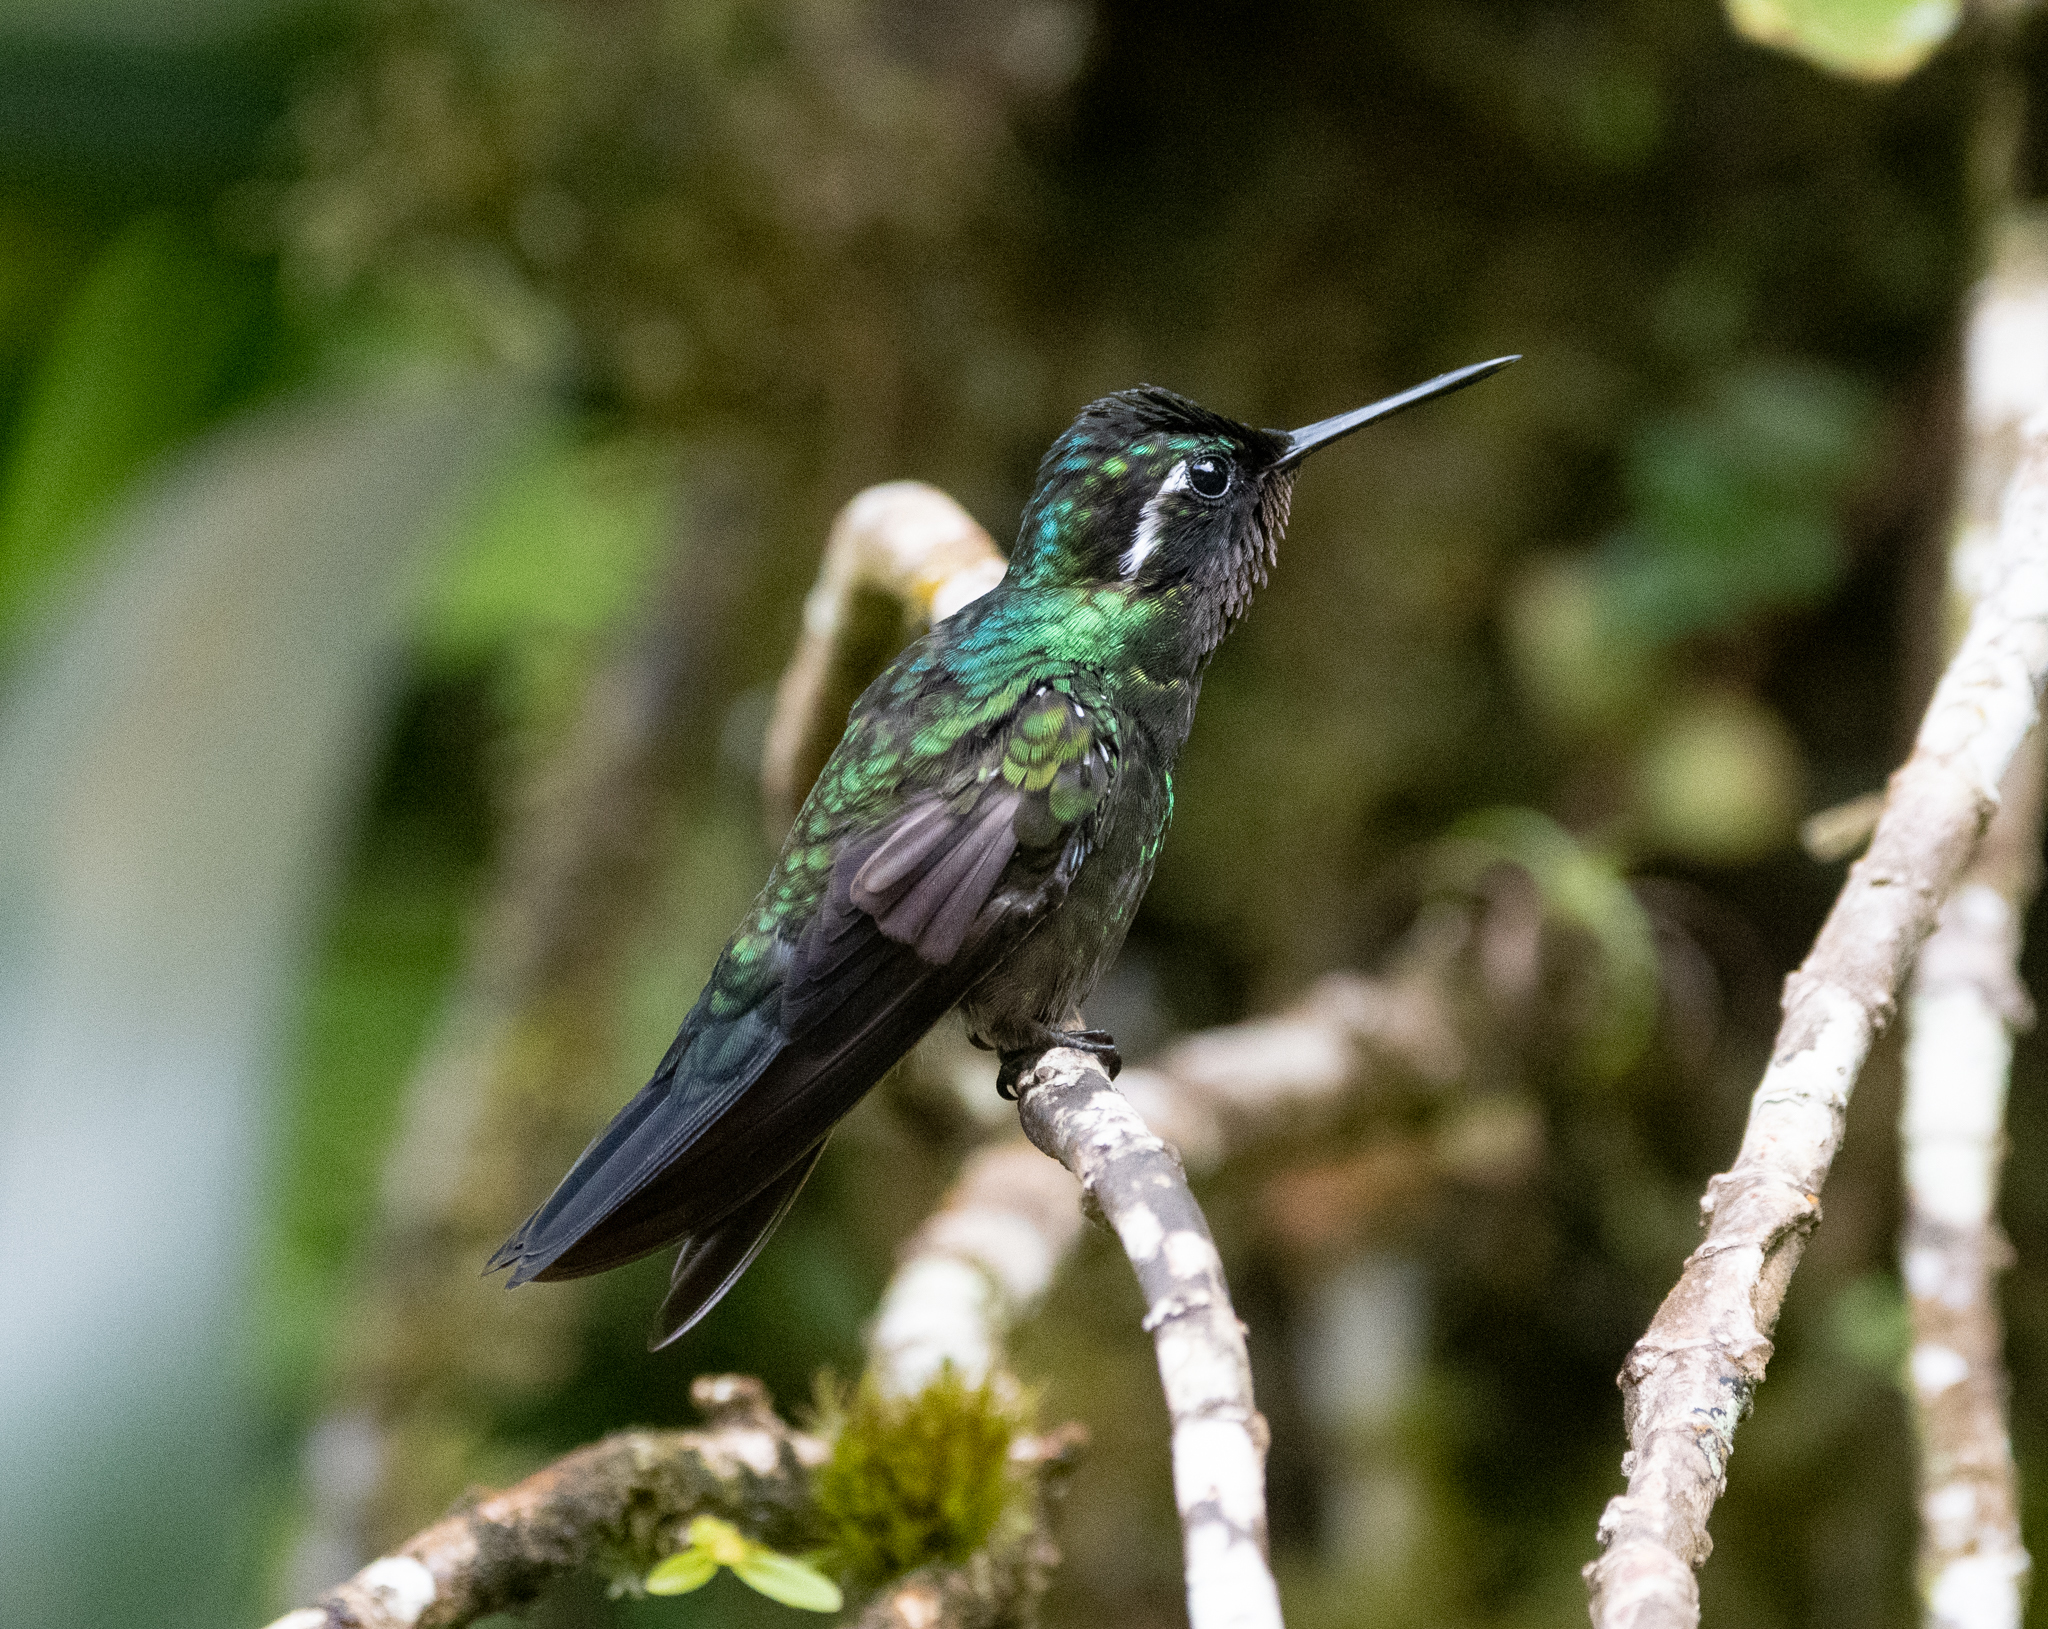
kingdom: Animalia
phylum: Chordata
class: Aves
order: Apodiformes
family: Trochilidae
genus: Lampornis
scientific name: Lampornis calolaemus
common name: Purple-throated mountain-gem
